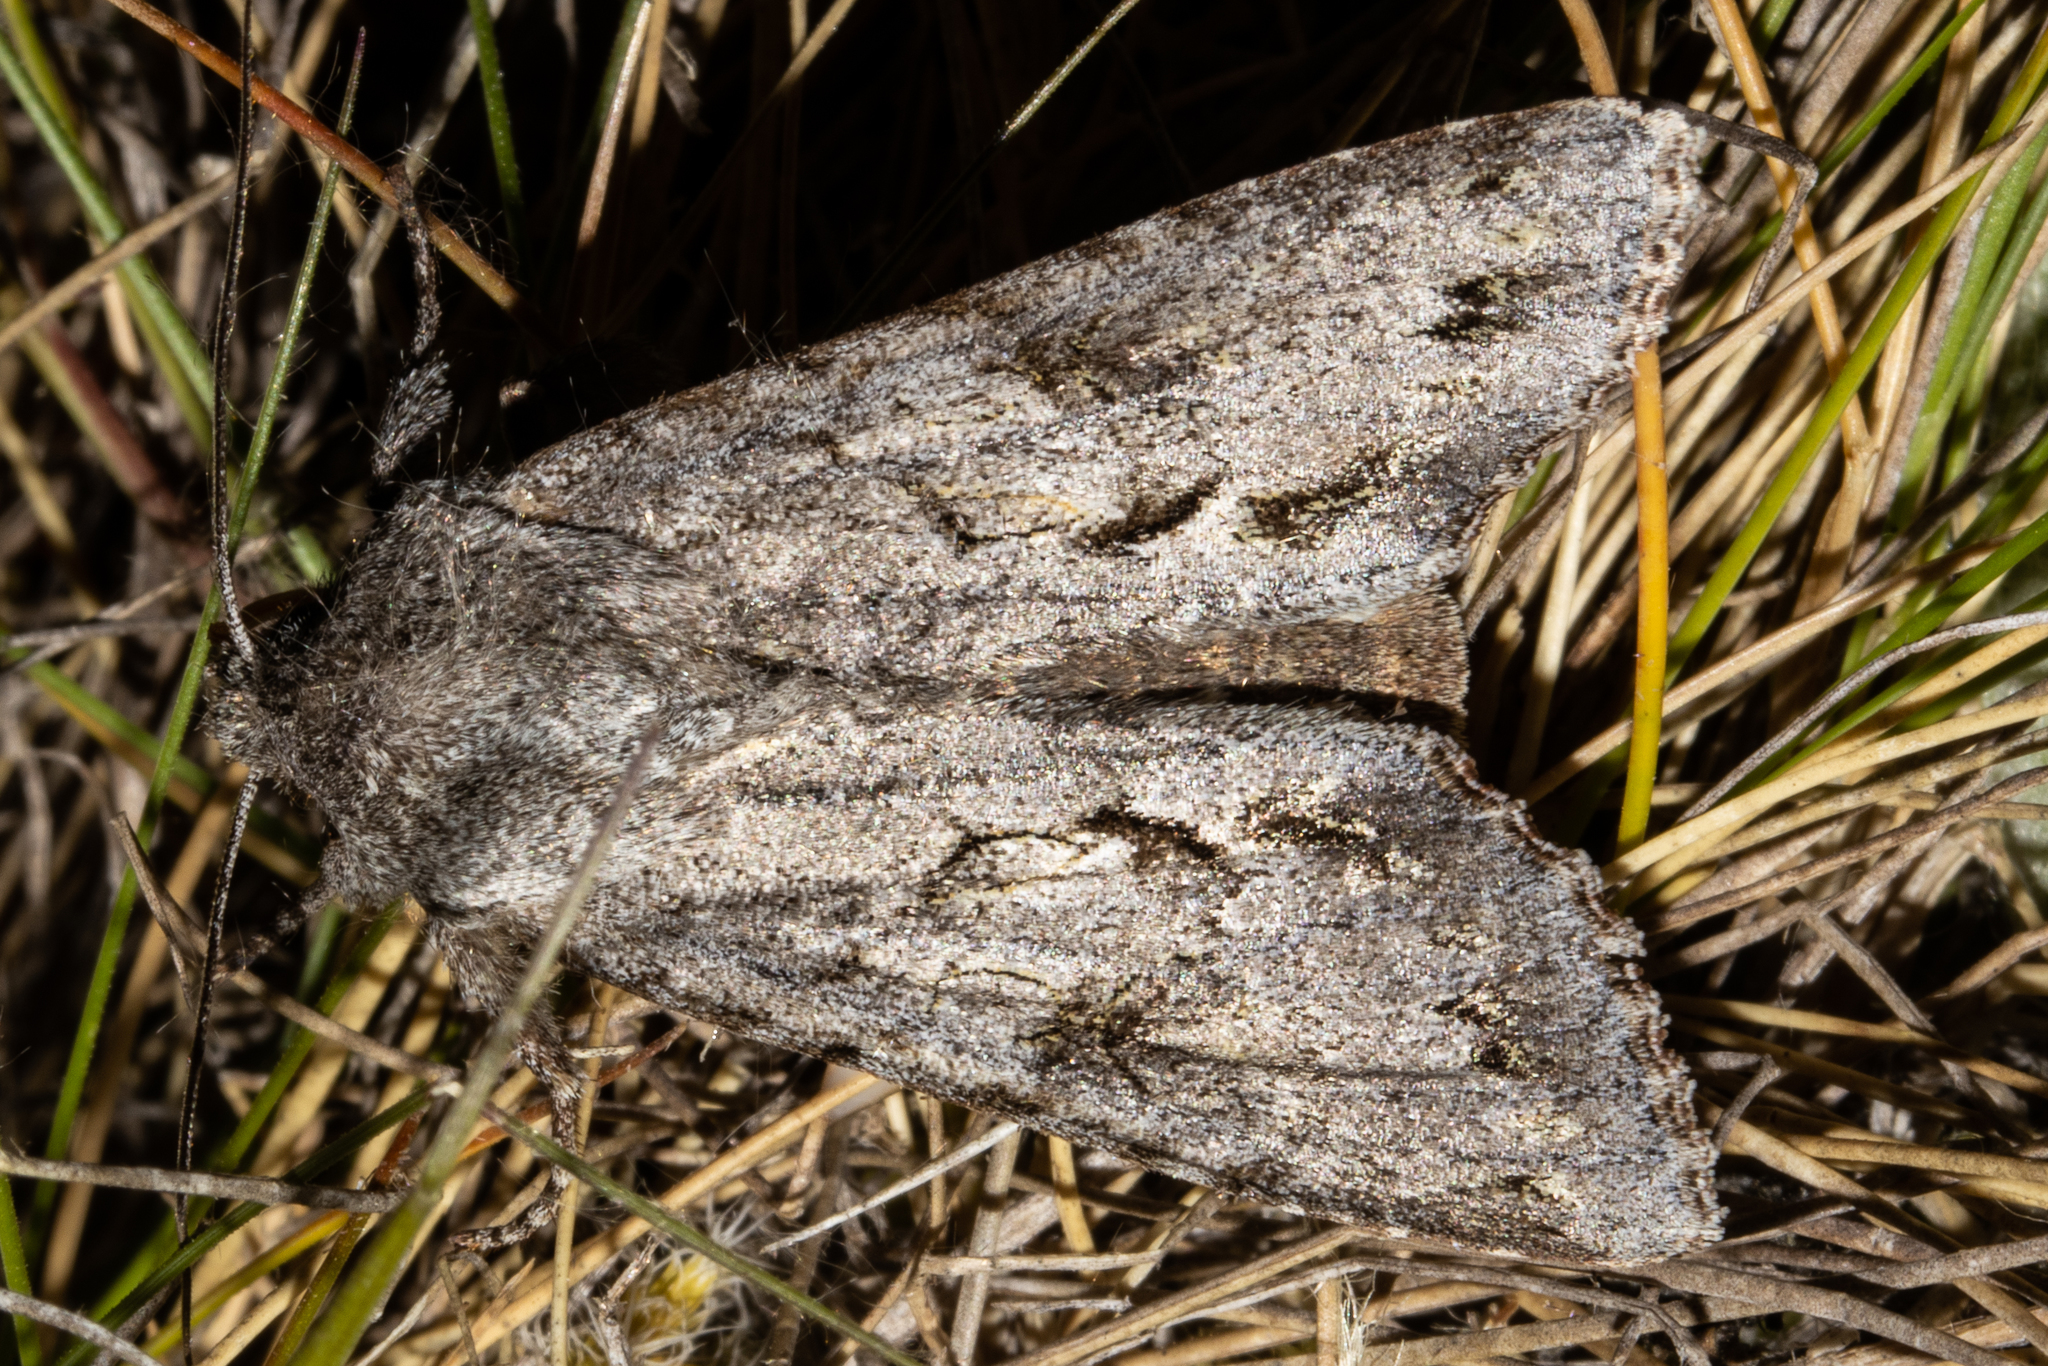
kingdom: Animalia
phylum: Arthropoda
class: Insecta
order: Lepidoptera
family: Noctuidae
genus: Ichneutica
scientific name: Ichneutica
